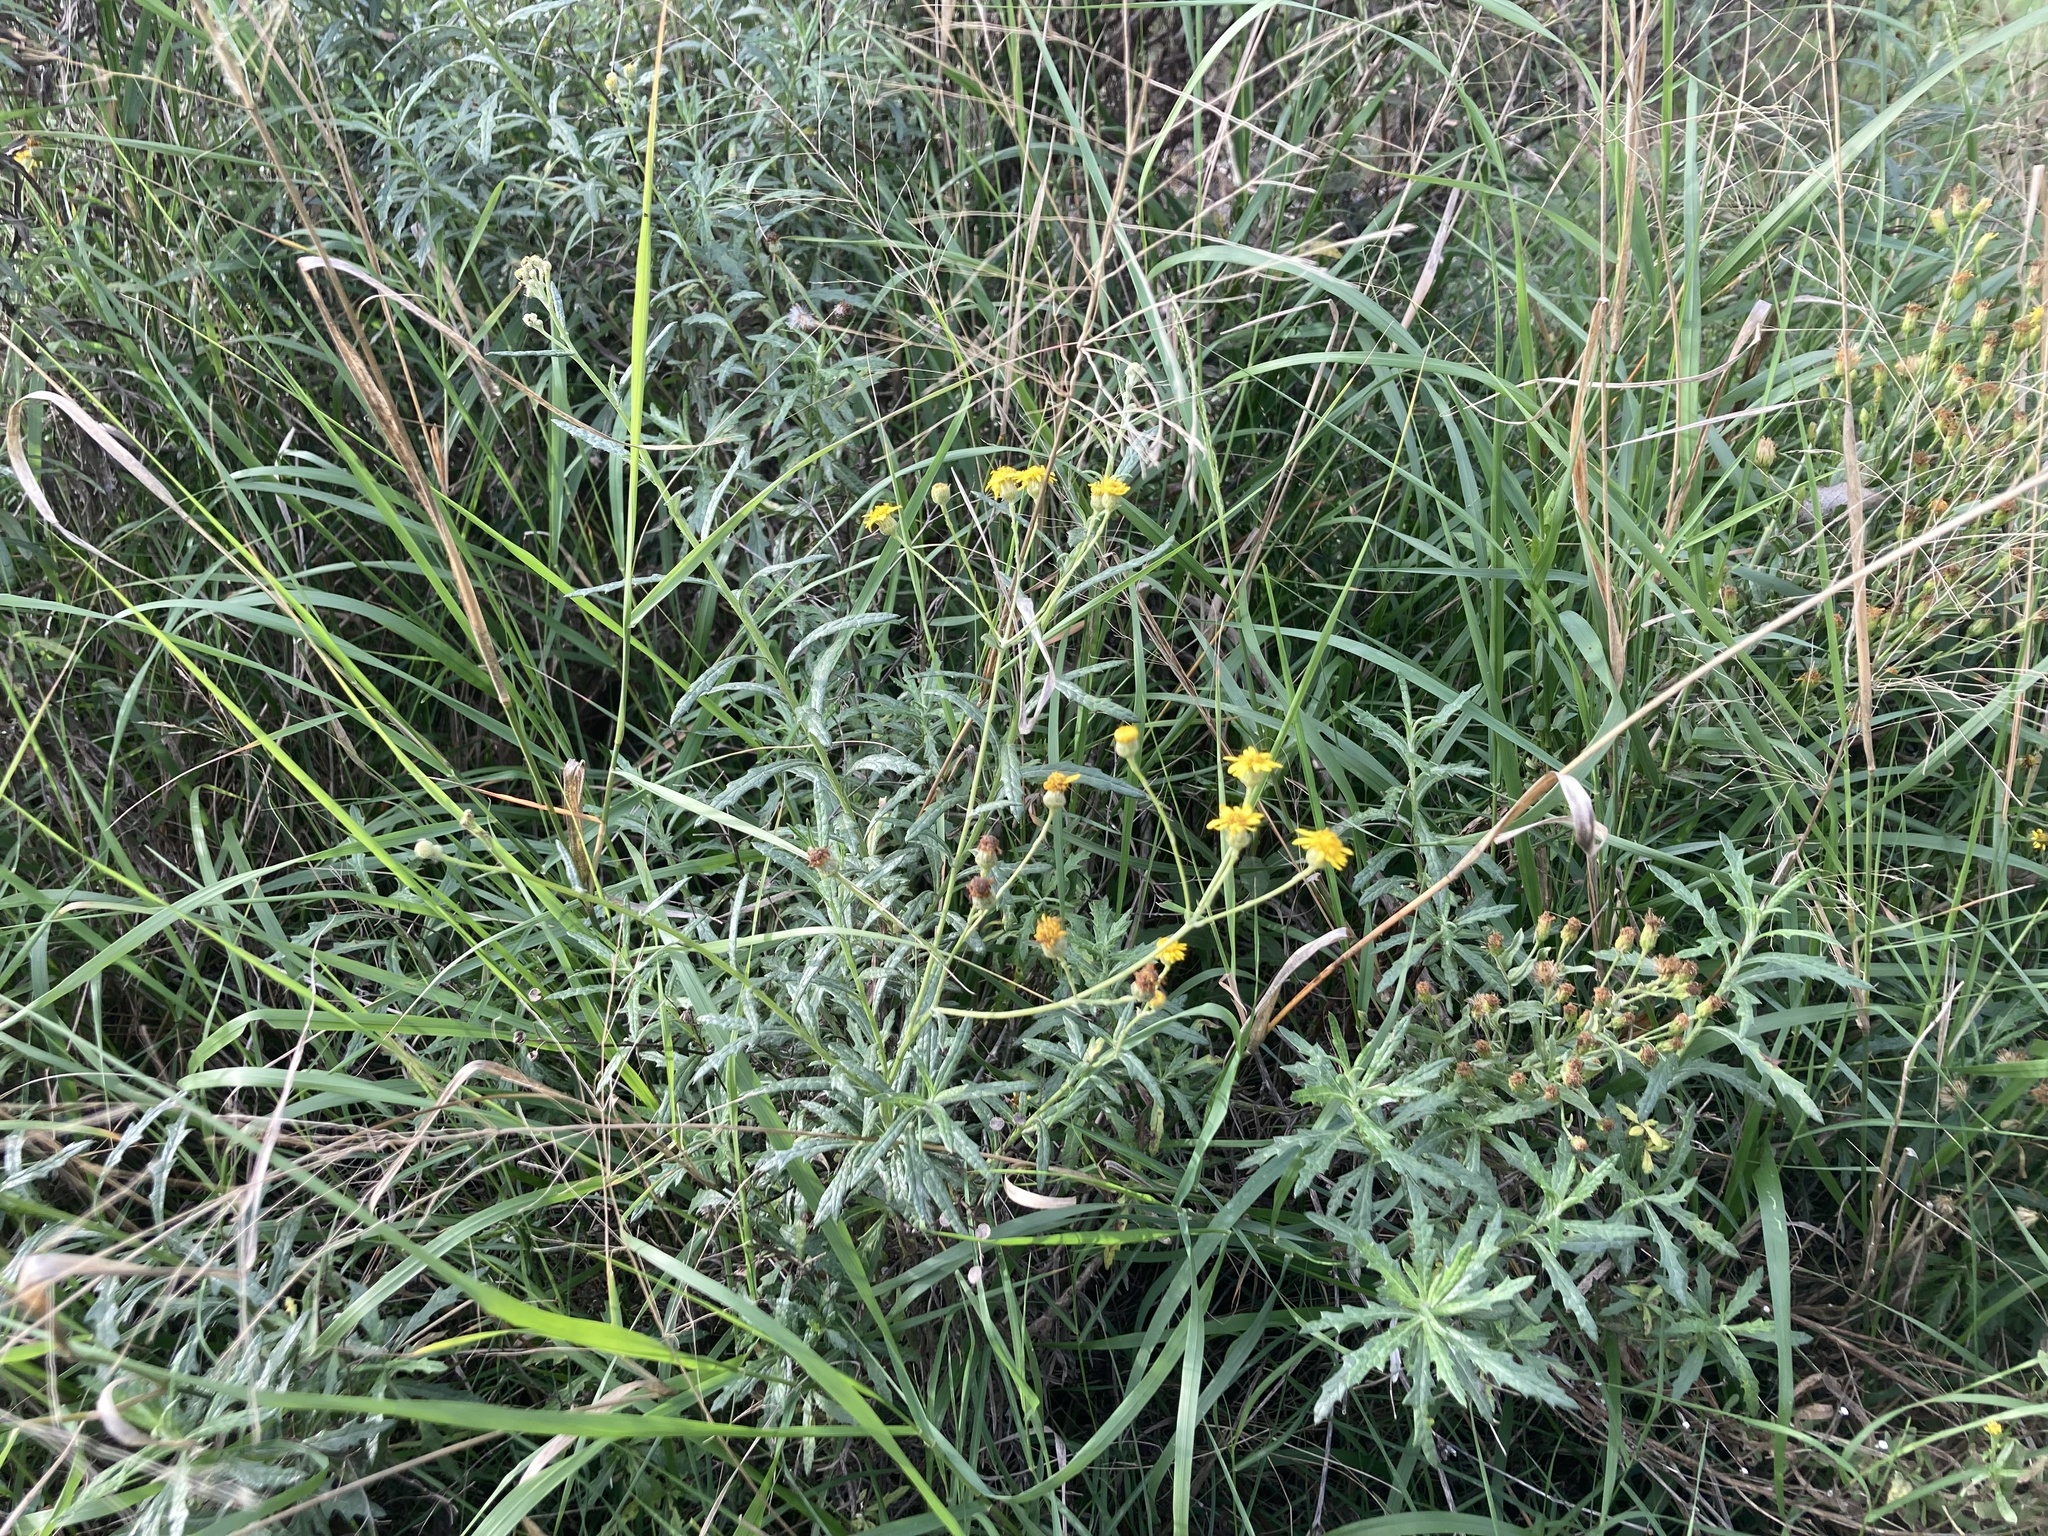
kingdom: Plantae
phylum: Tracheophyta
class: Magnoliopsida
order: Asterales
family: Asteraceae
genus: Senecio
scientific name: Senecio pterophorus
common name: Shoddy ragwort
